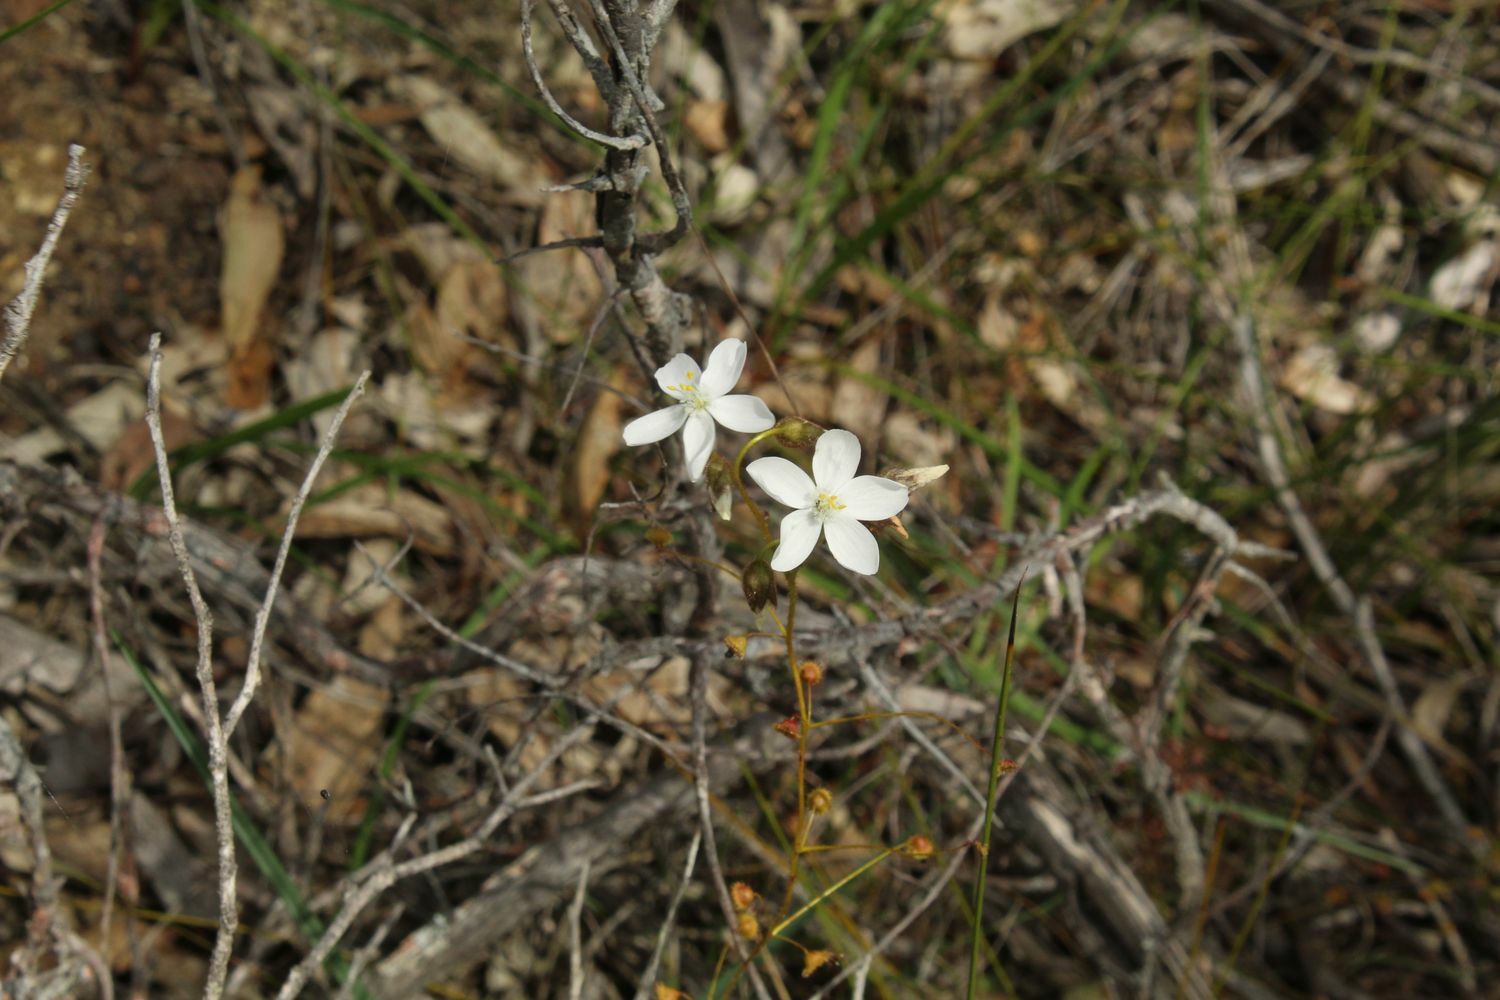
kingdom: Plantae
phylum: Tracheophyta
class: Magnoliopsida
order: Caryophyllales
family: Droseraceae
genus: Drosera
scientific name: Drosera macrantha
